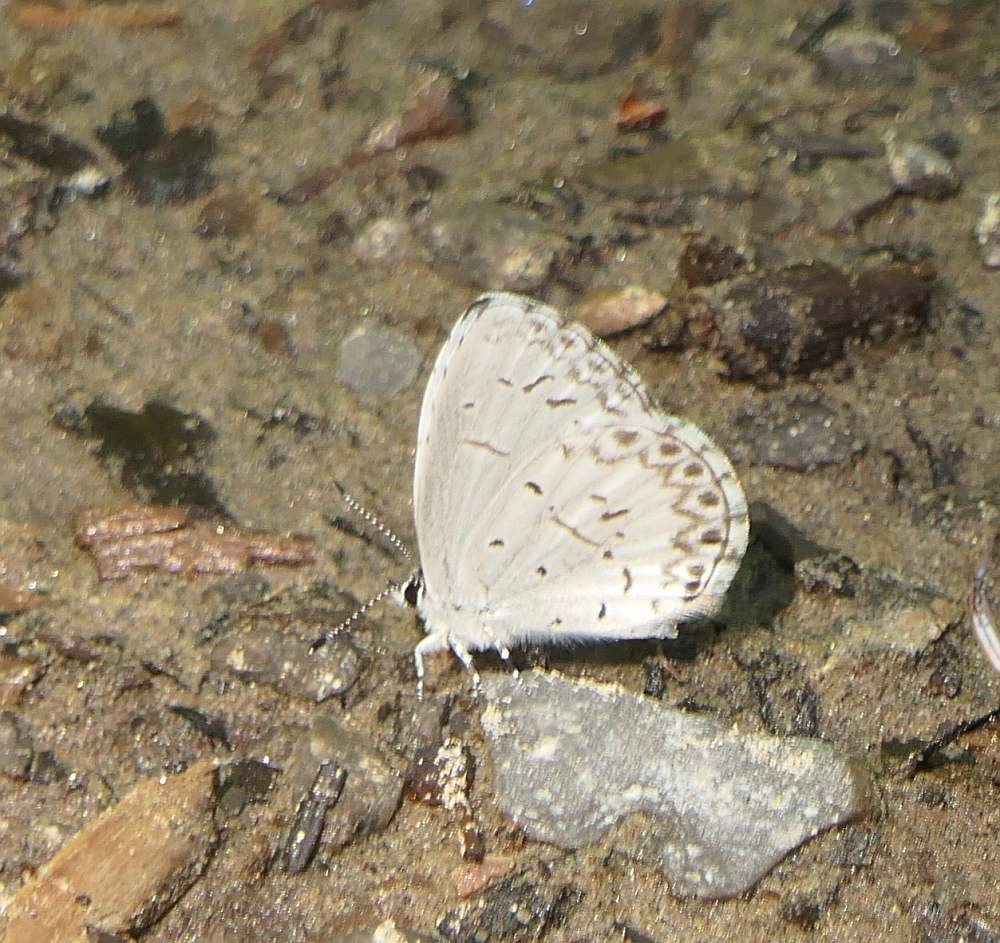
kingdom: Animalia
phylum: Arthropoda
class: Insecta
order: Lepidoptera
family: Lycaenidae
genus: Celastrina
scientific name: Celastrina lucia
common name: Lucia azure
